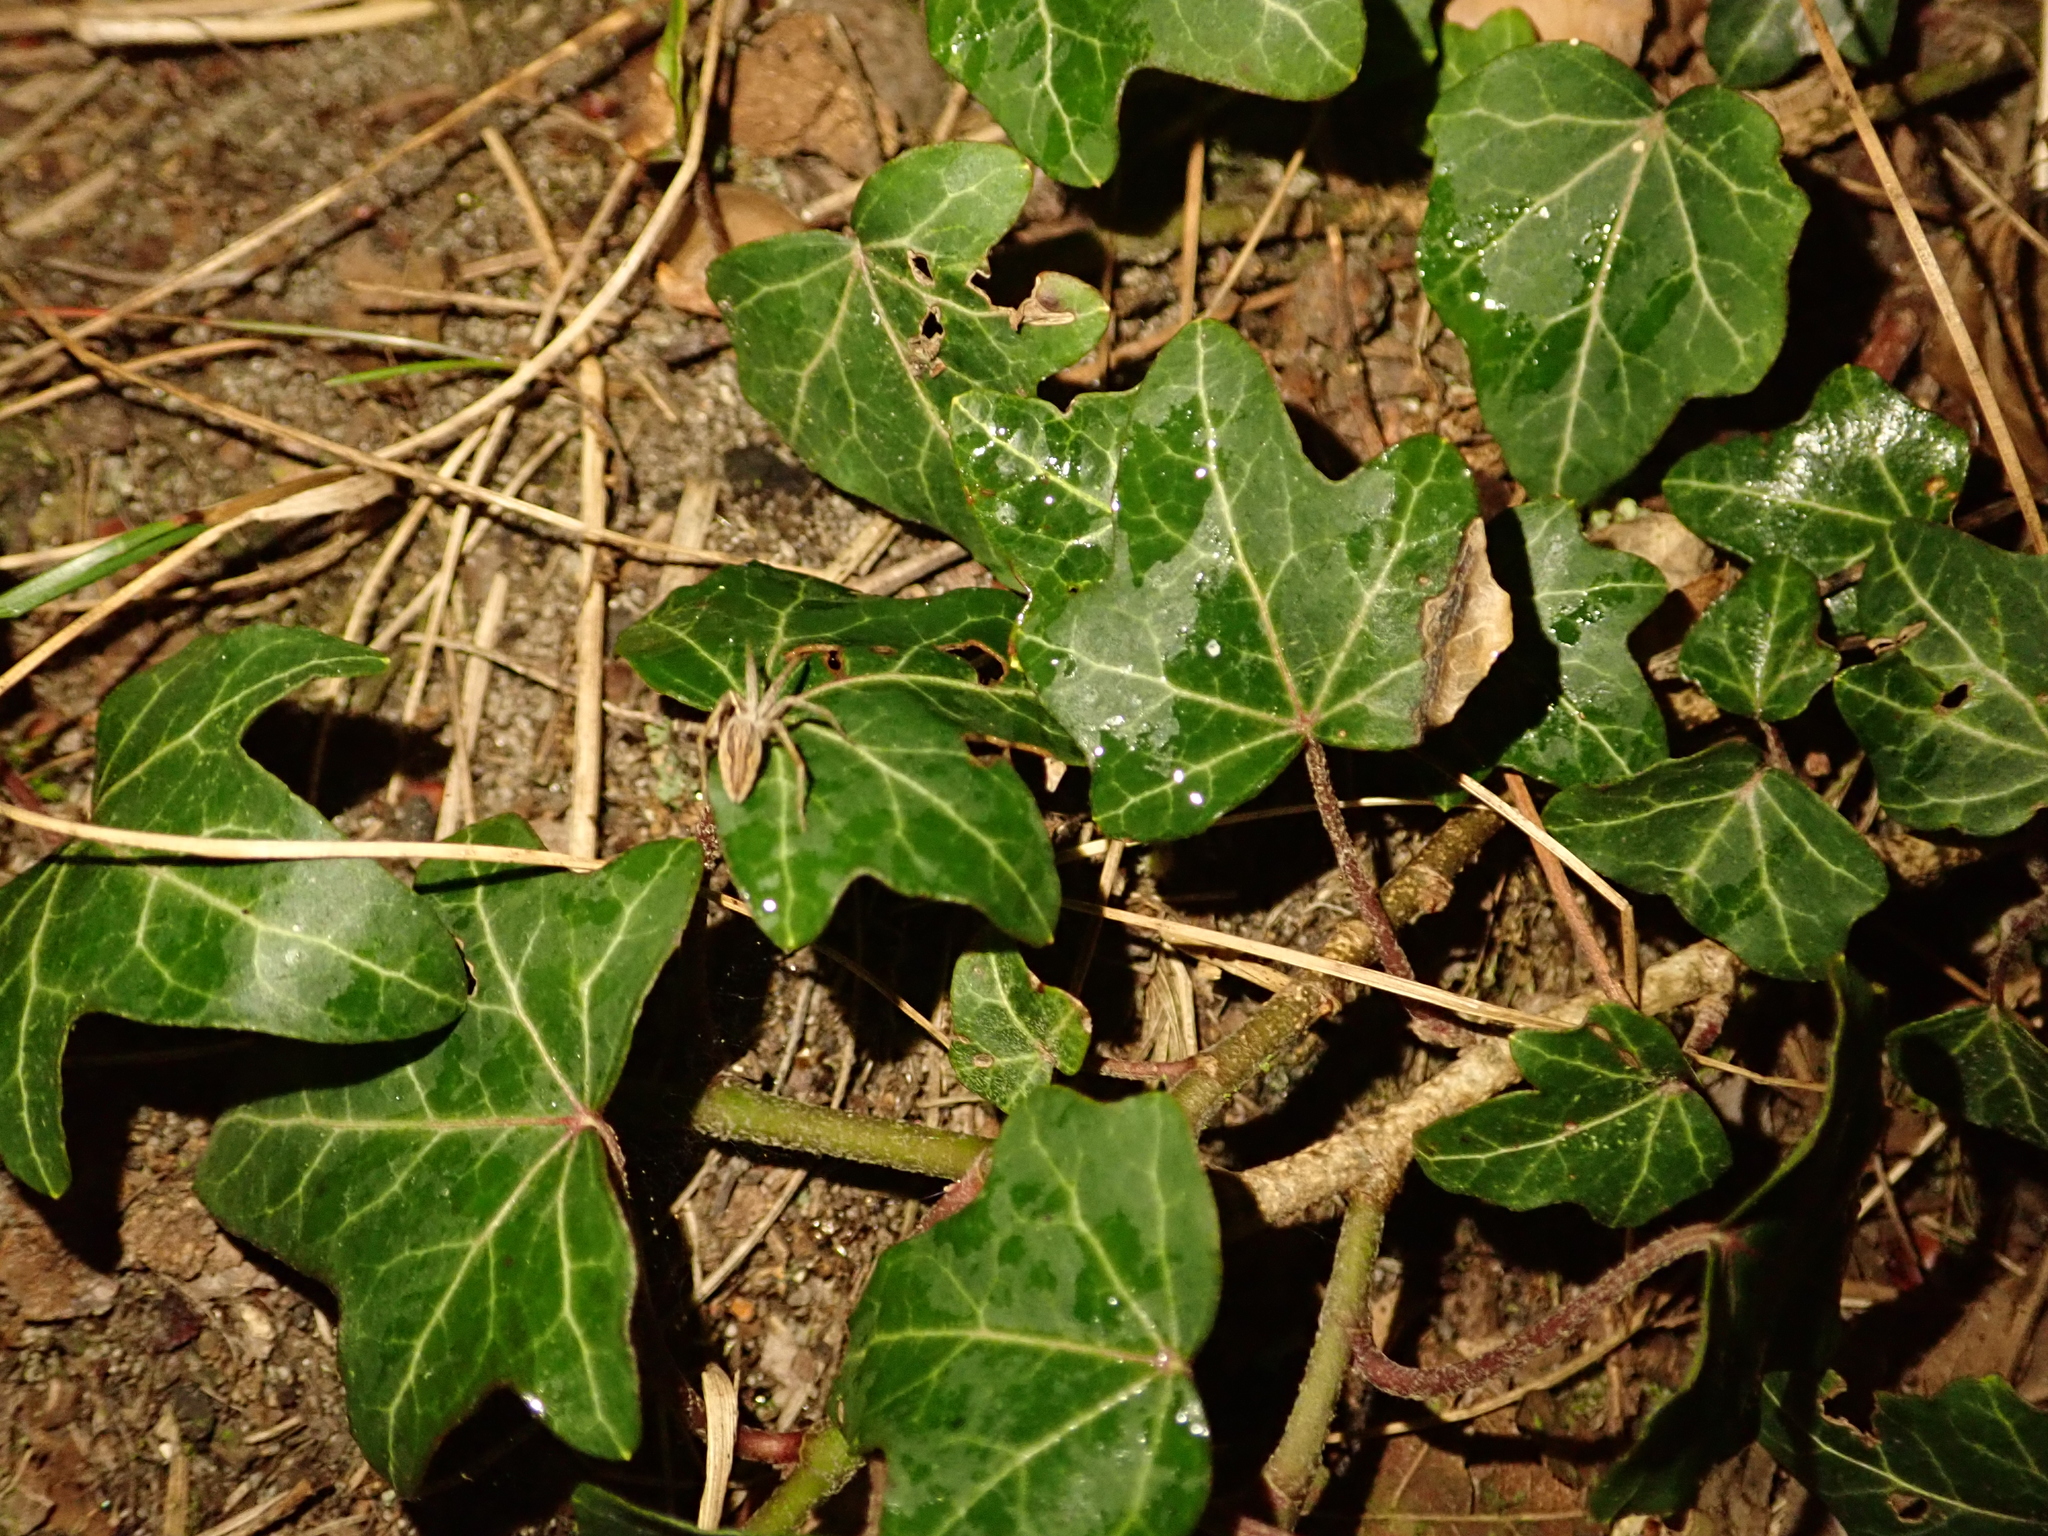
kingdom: Plantae
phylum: Tracheophyta
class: Magnoliopsida
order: Apiales
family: Araliaceae
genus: Hedera
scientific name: Hedera helix
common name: Ivy
